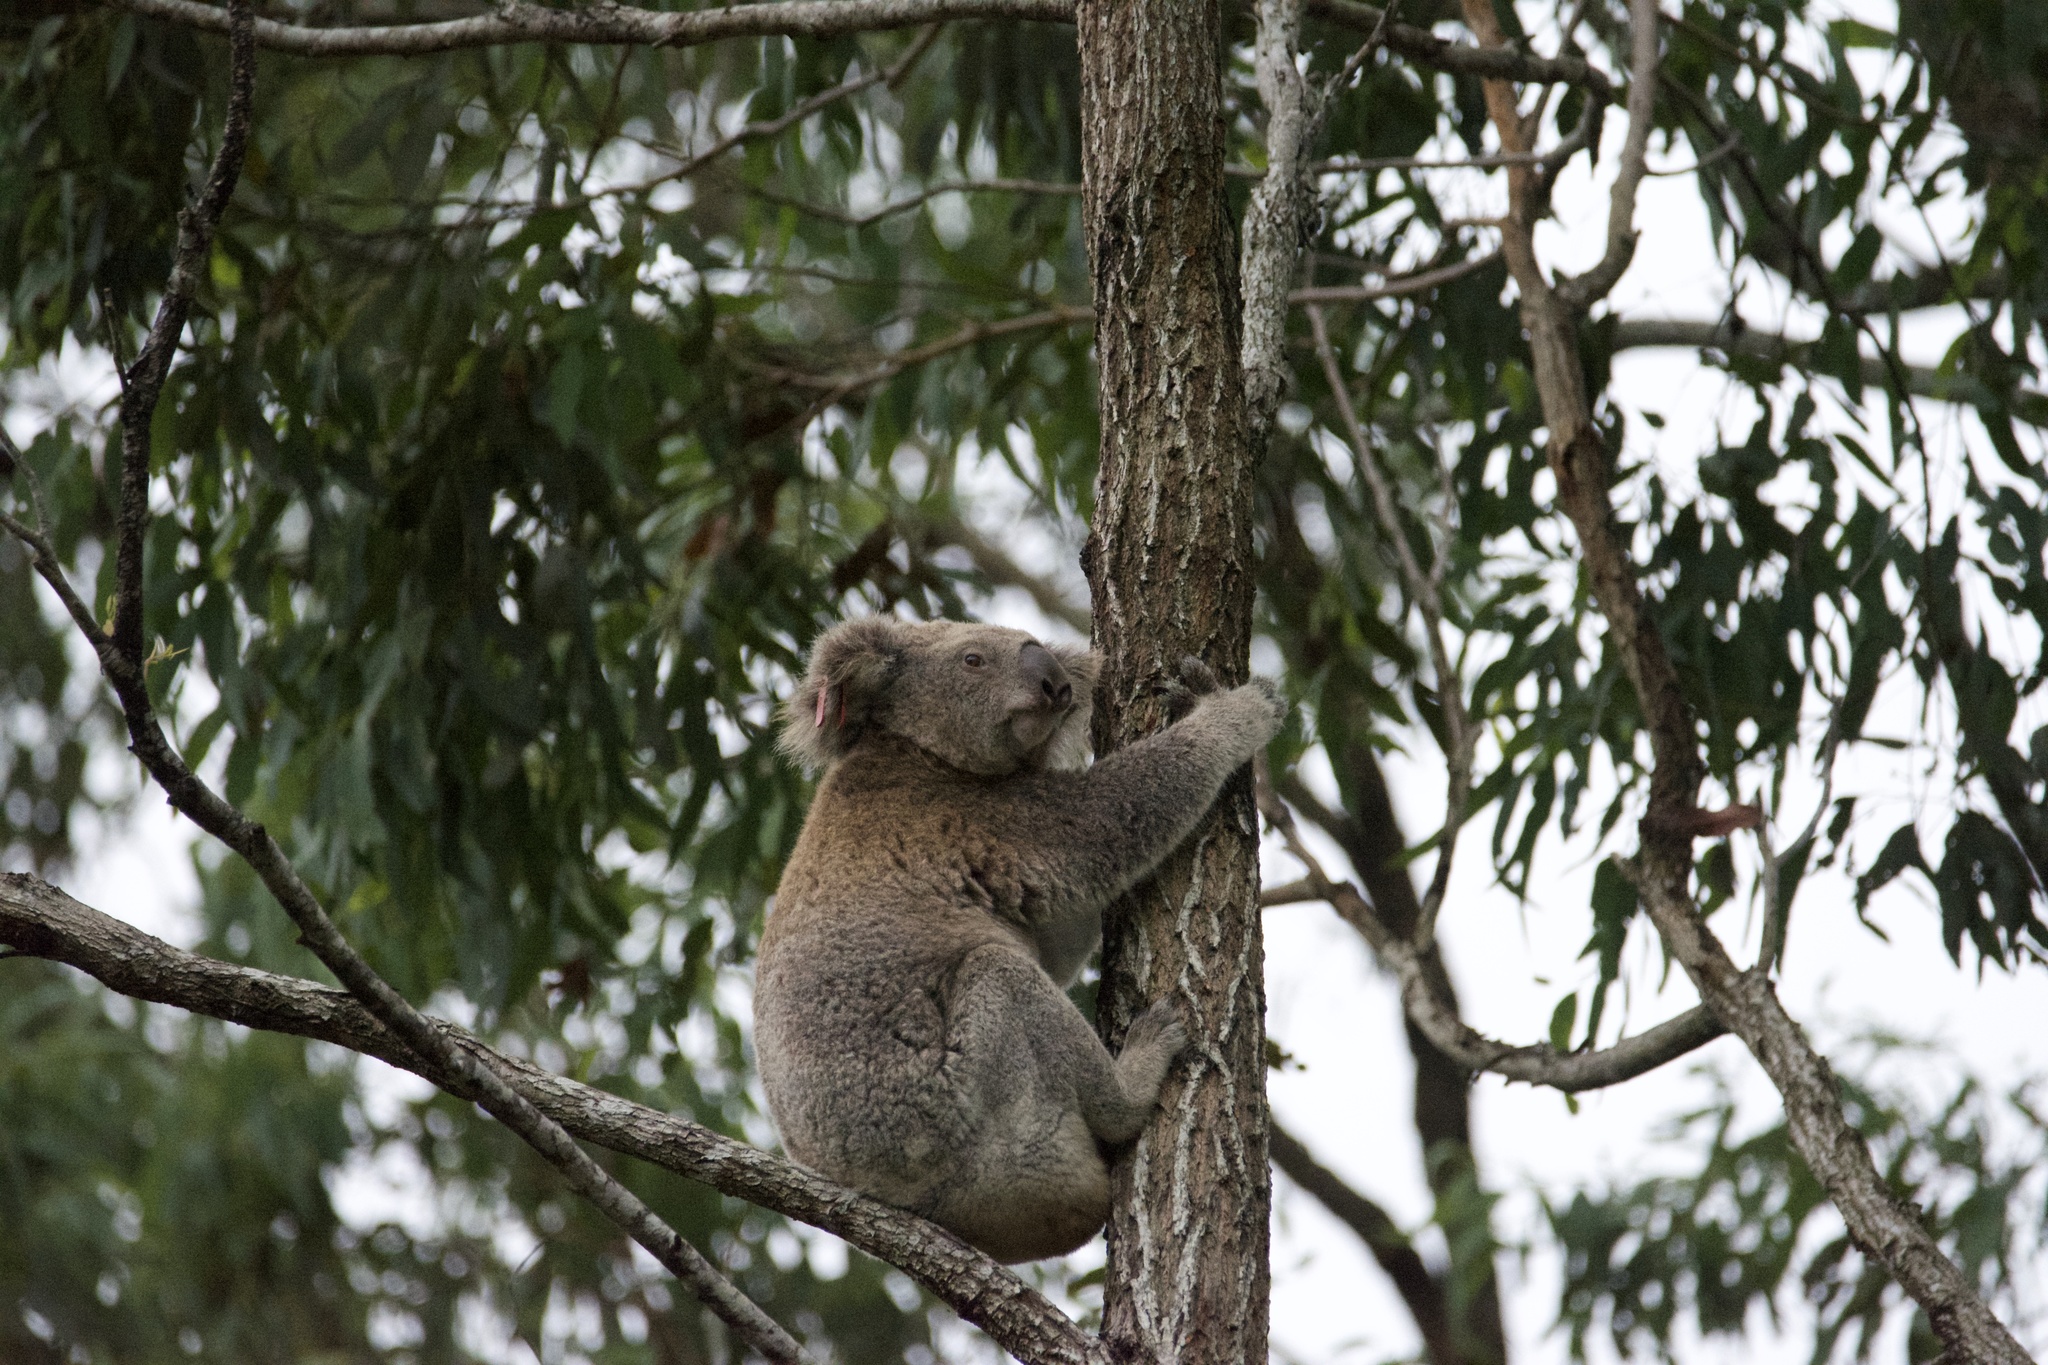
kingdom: Animalia
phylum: Chordata
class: Mammalia
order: Diprotodontia
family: Phascolarctidae
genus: Phascolarctos
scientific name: Phascolarctos cinereus
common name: Koala
